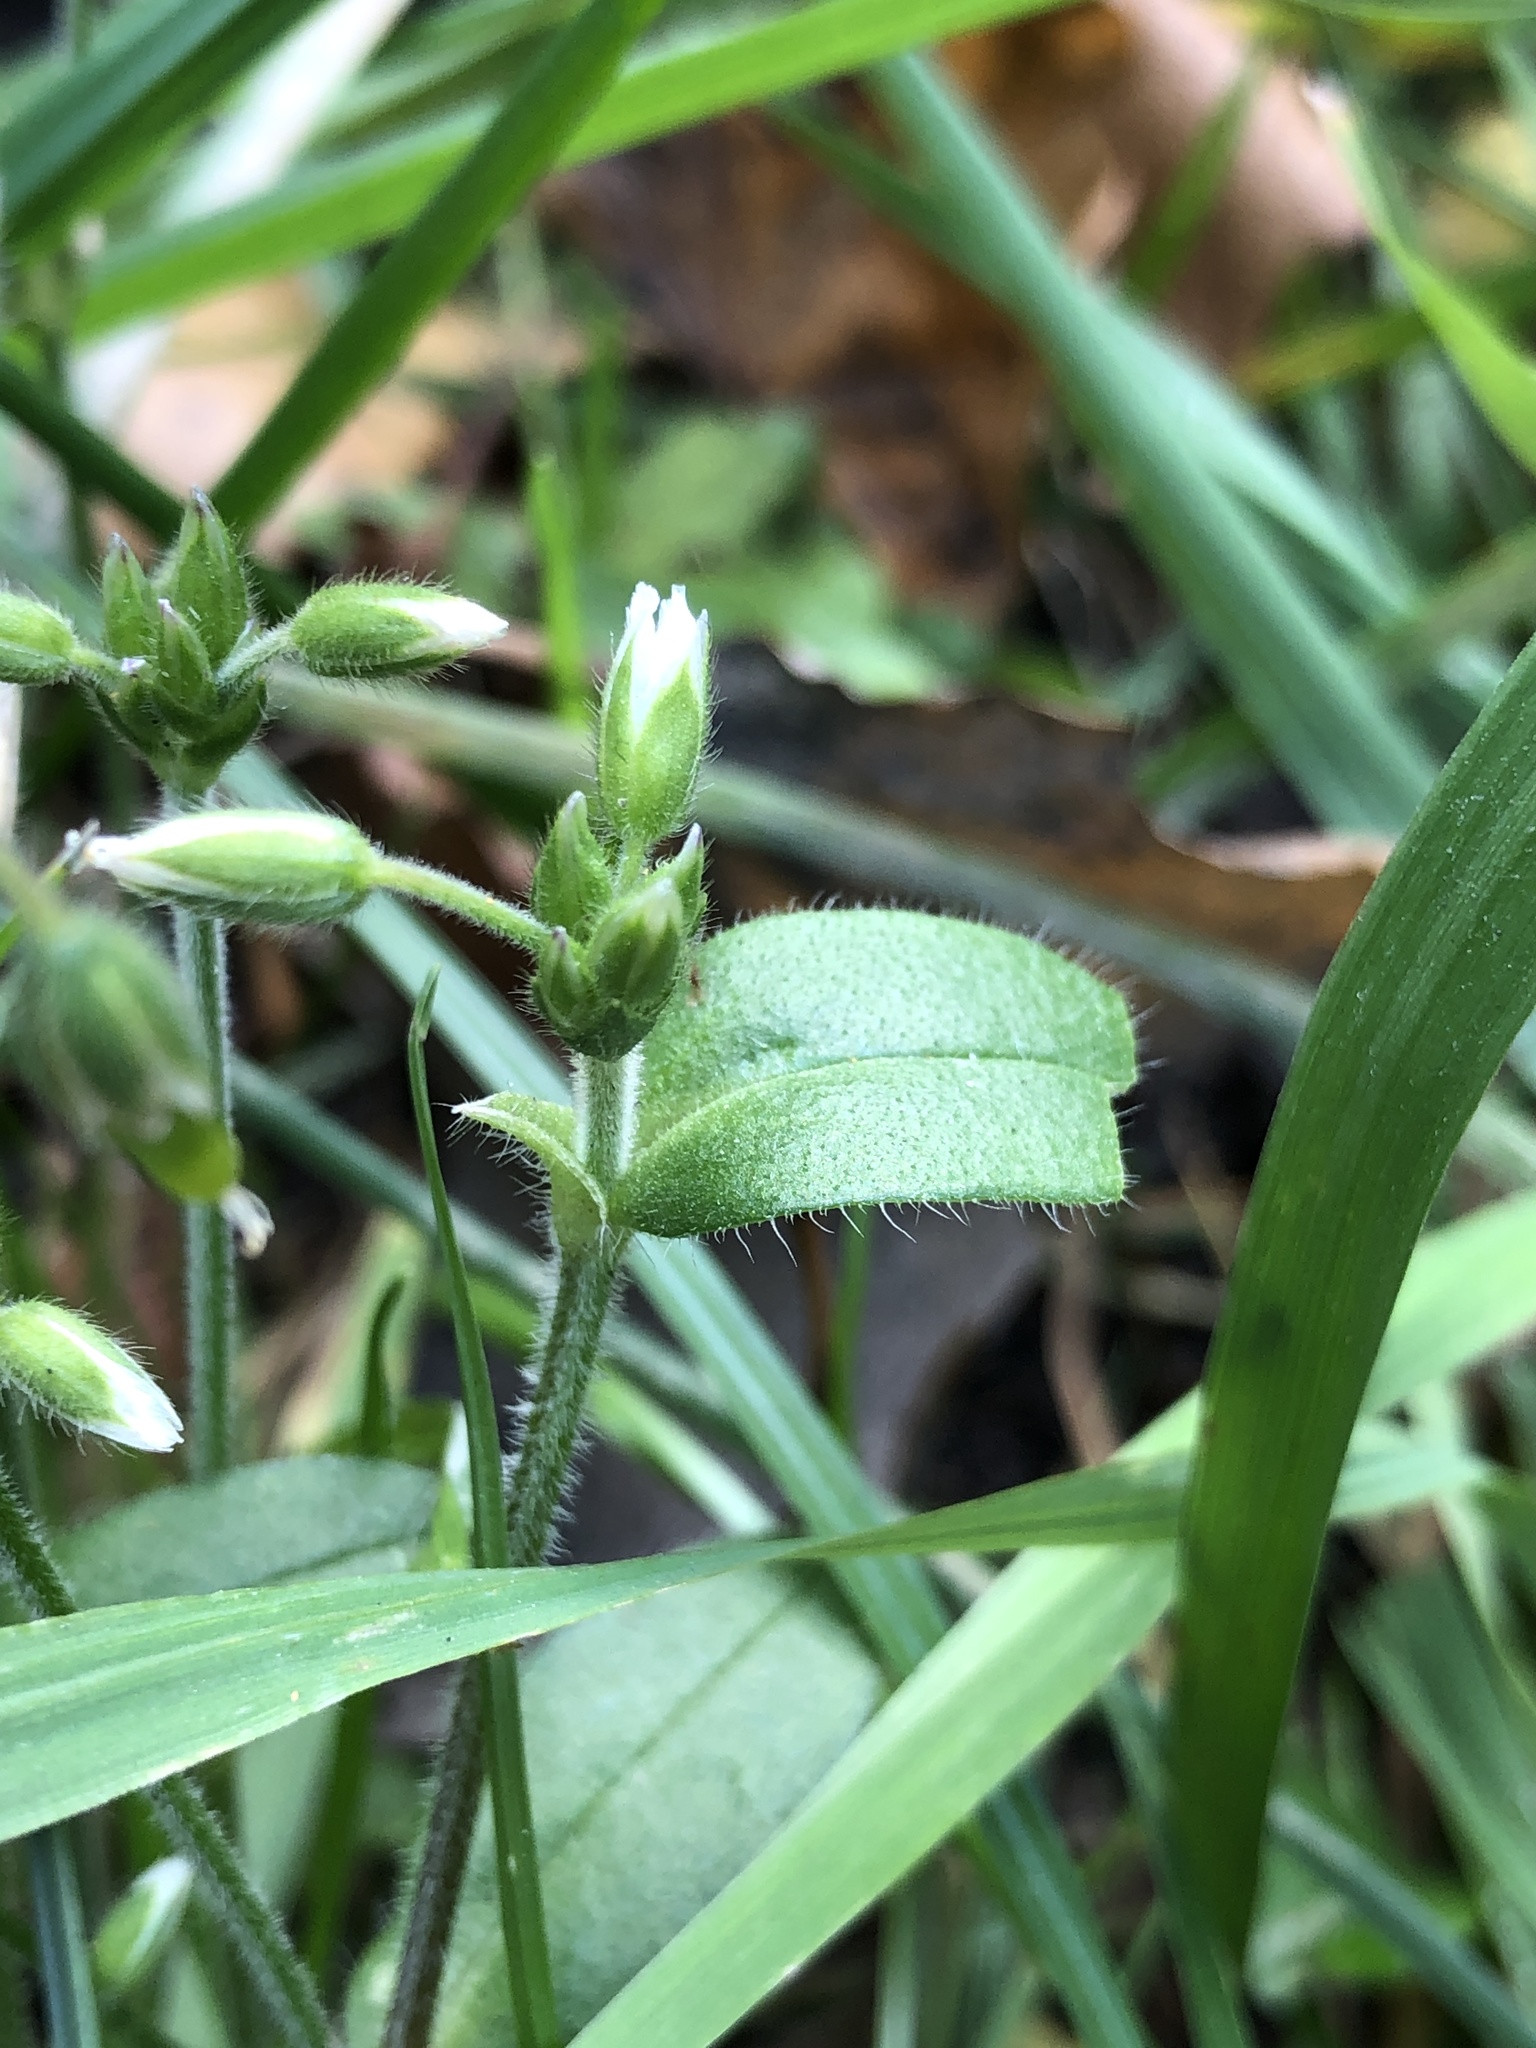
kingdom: Plantae
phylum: Tracheophyta
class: Magnoliopsida
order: Caryophyllales
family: Caryophyllaceae
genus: Cerastium
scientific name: Cerastium holosteoides
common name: Big chickweed
